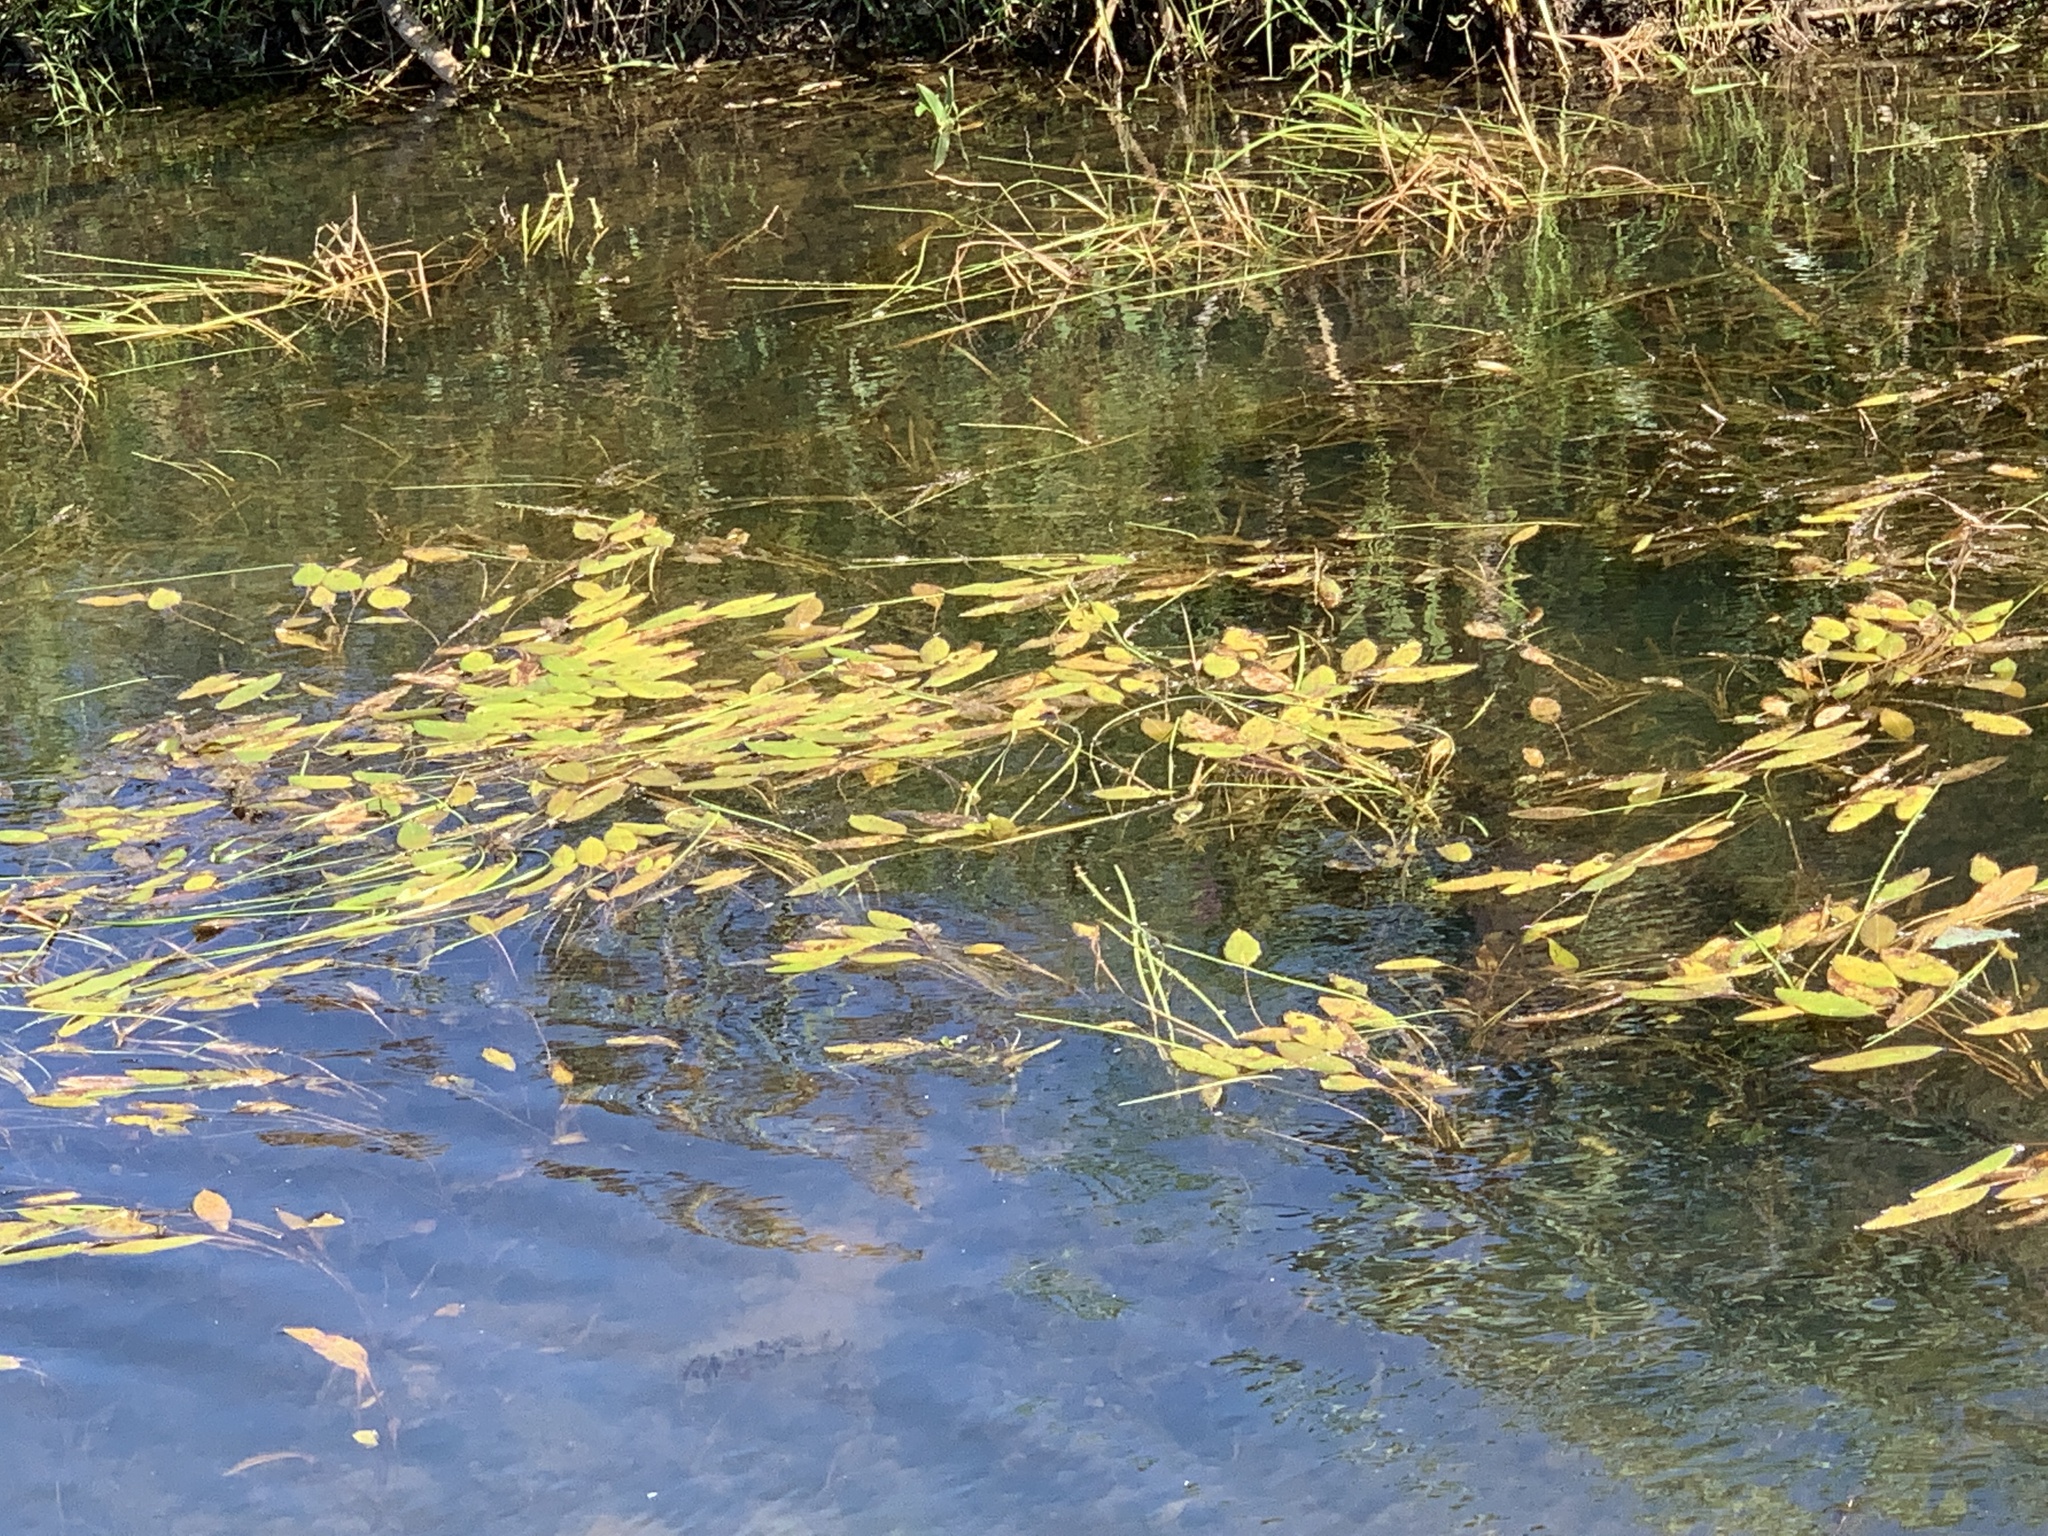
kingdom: Plantae
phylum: Tracheophyta
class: Liliopsida
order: Alismatales
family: Potamogetonaceae
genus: Potamogeton
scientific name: Potamogeton nodosus
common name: Loddon pondweed
